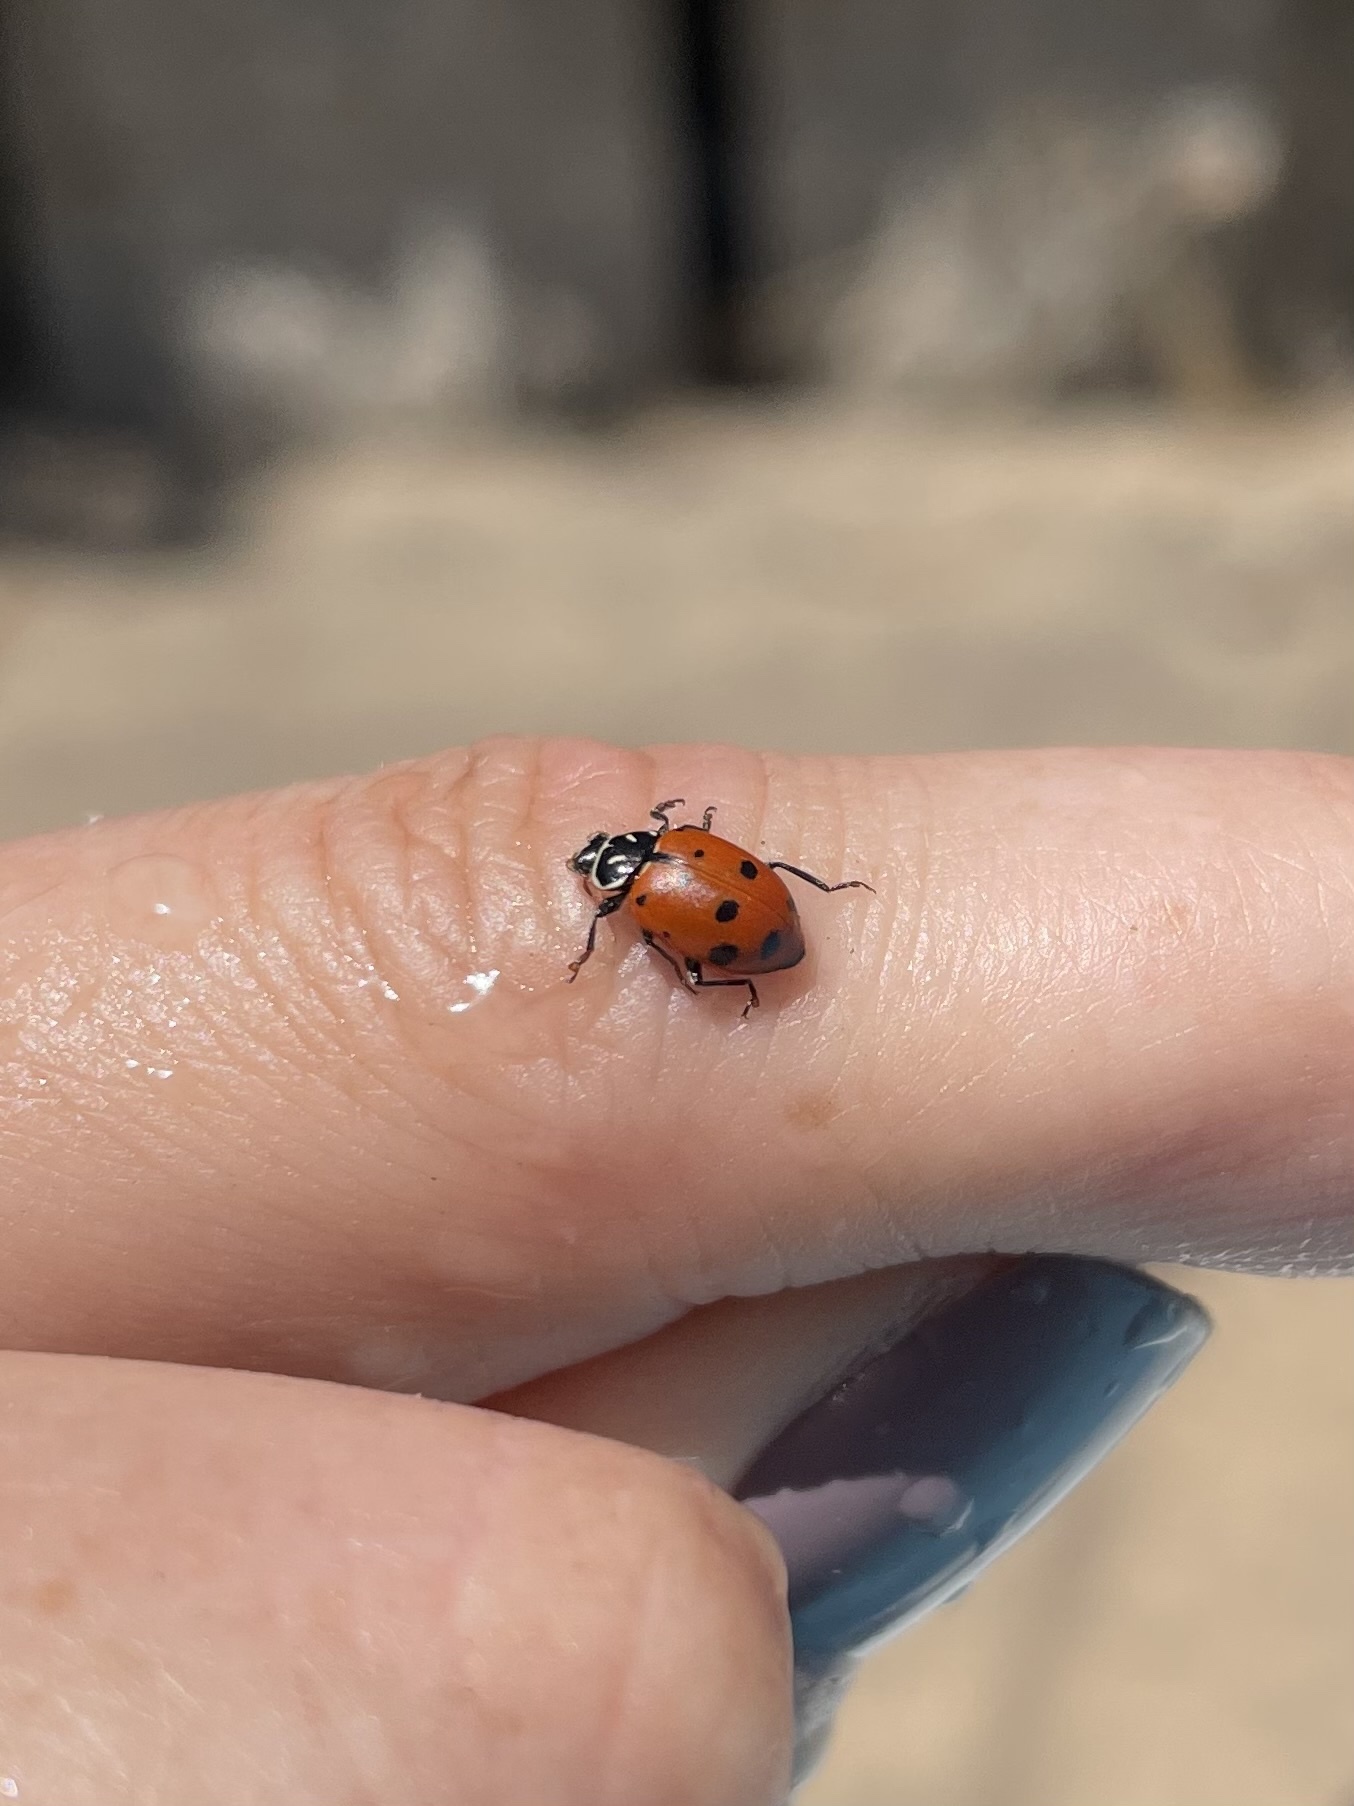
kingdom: Animalia
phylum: Arthropoda
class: Insecta
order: Coleoptera
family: Coccinellidae
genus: Hippodamia
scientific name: Hippodamia convergens
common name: Convergent lady beetle
